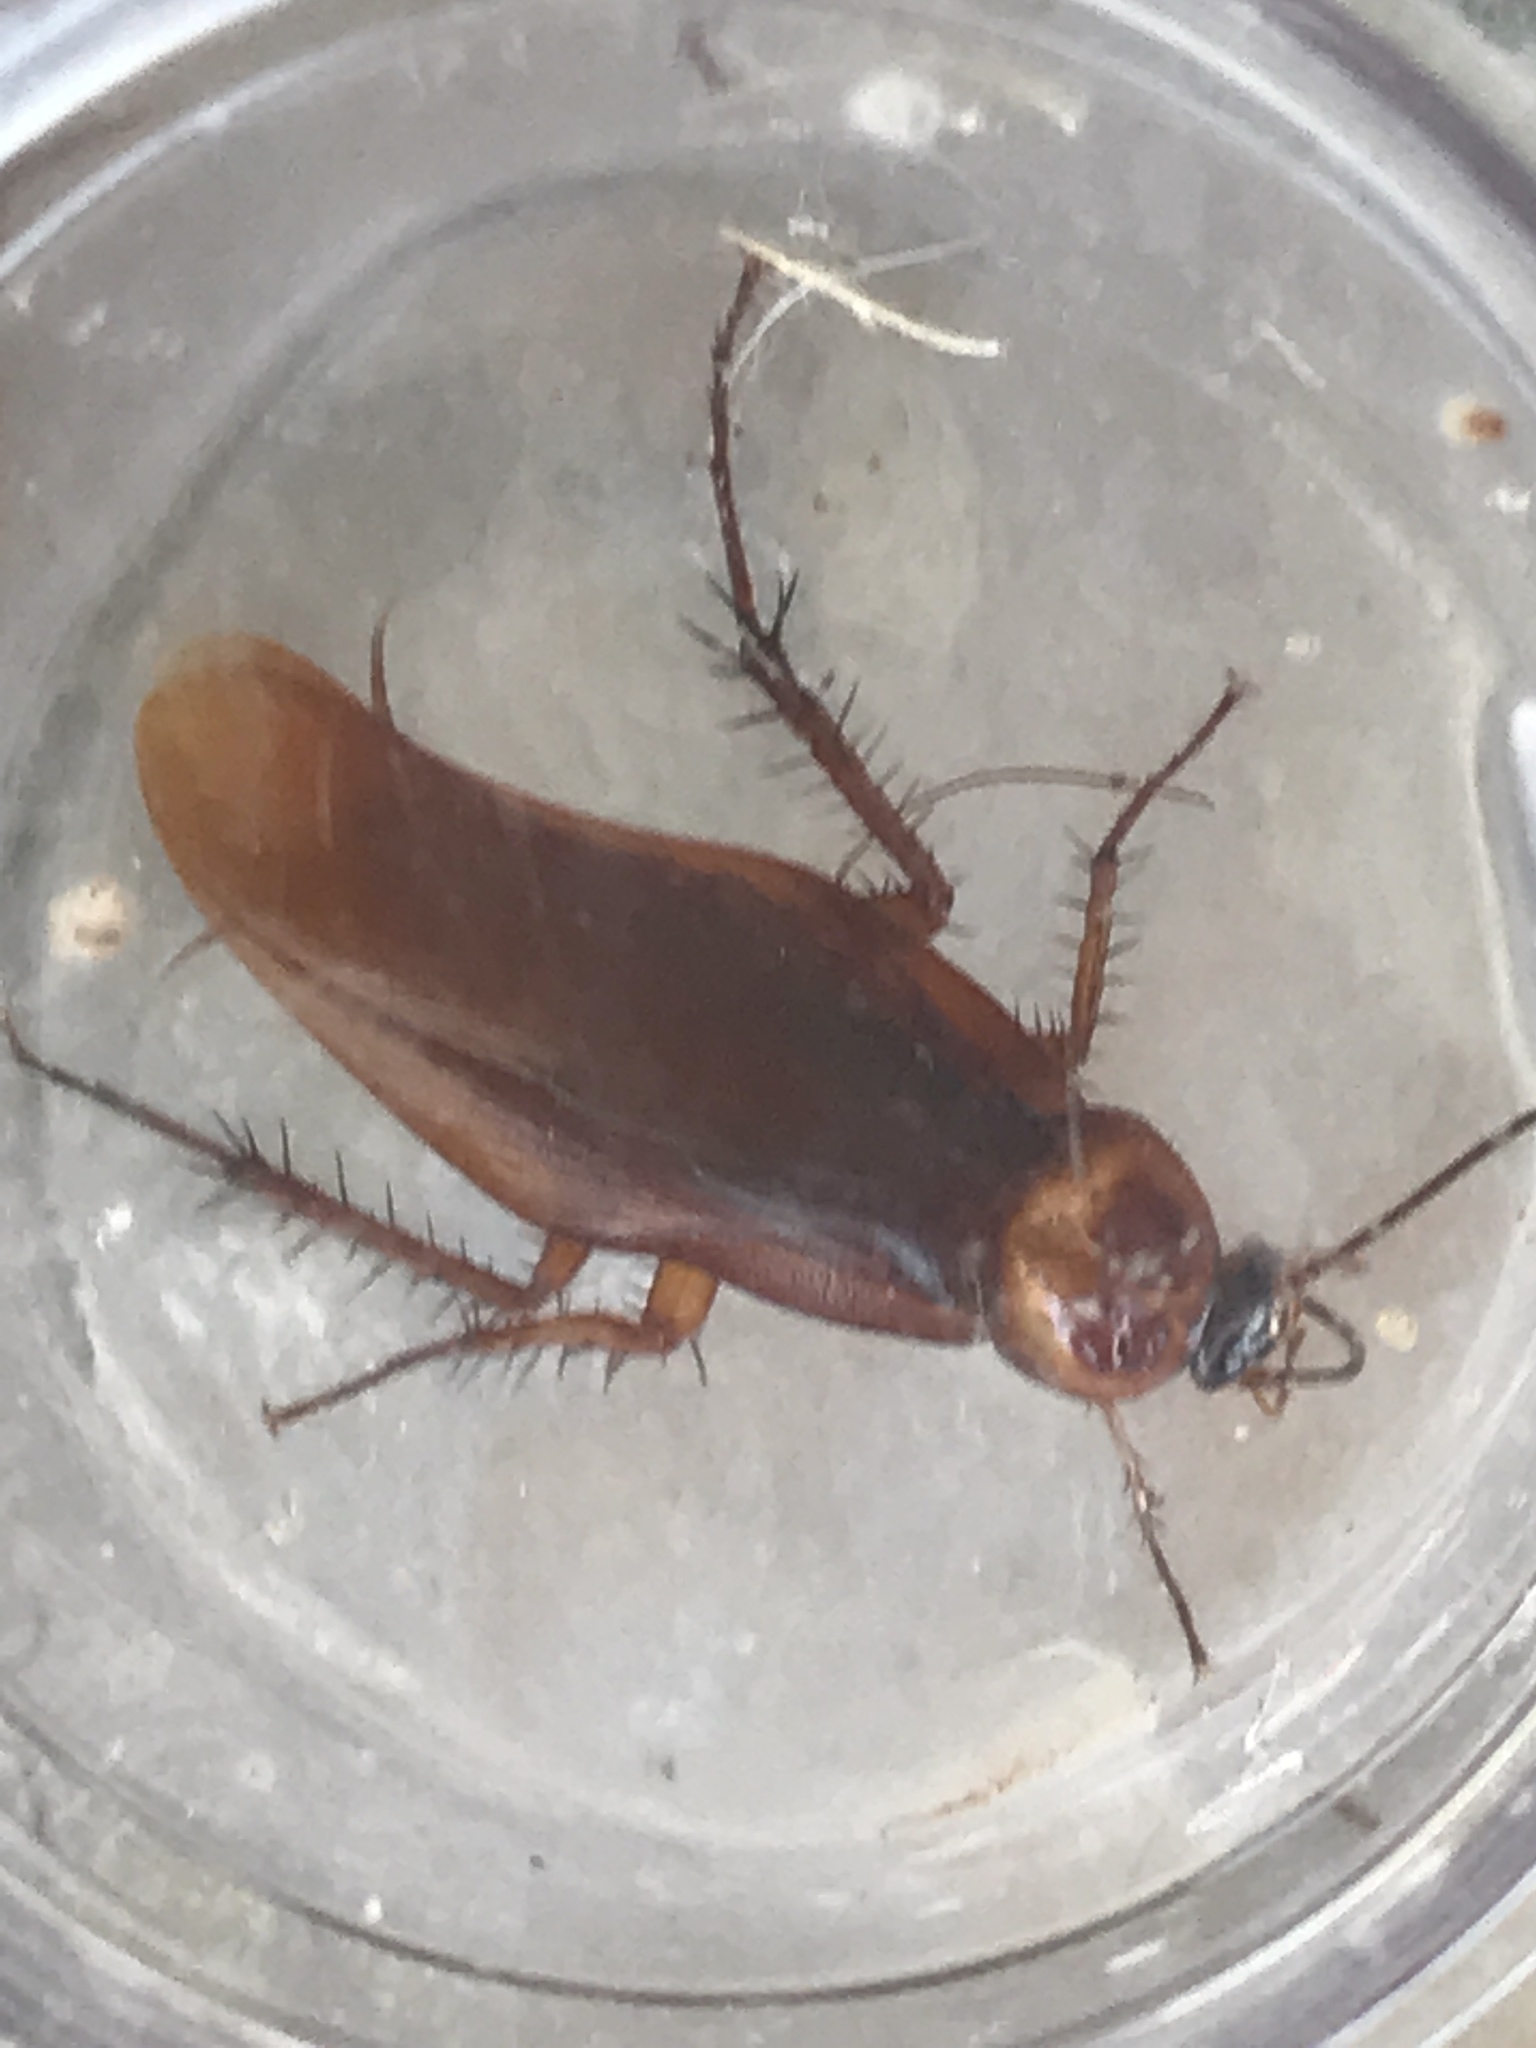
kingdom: Animalia
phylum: Arthropoda
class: Insecta
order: Blattodea
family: Blattidae
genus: Periplaneta
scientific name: Periplaneta americana
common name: American cockroach
